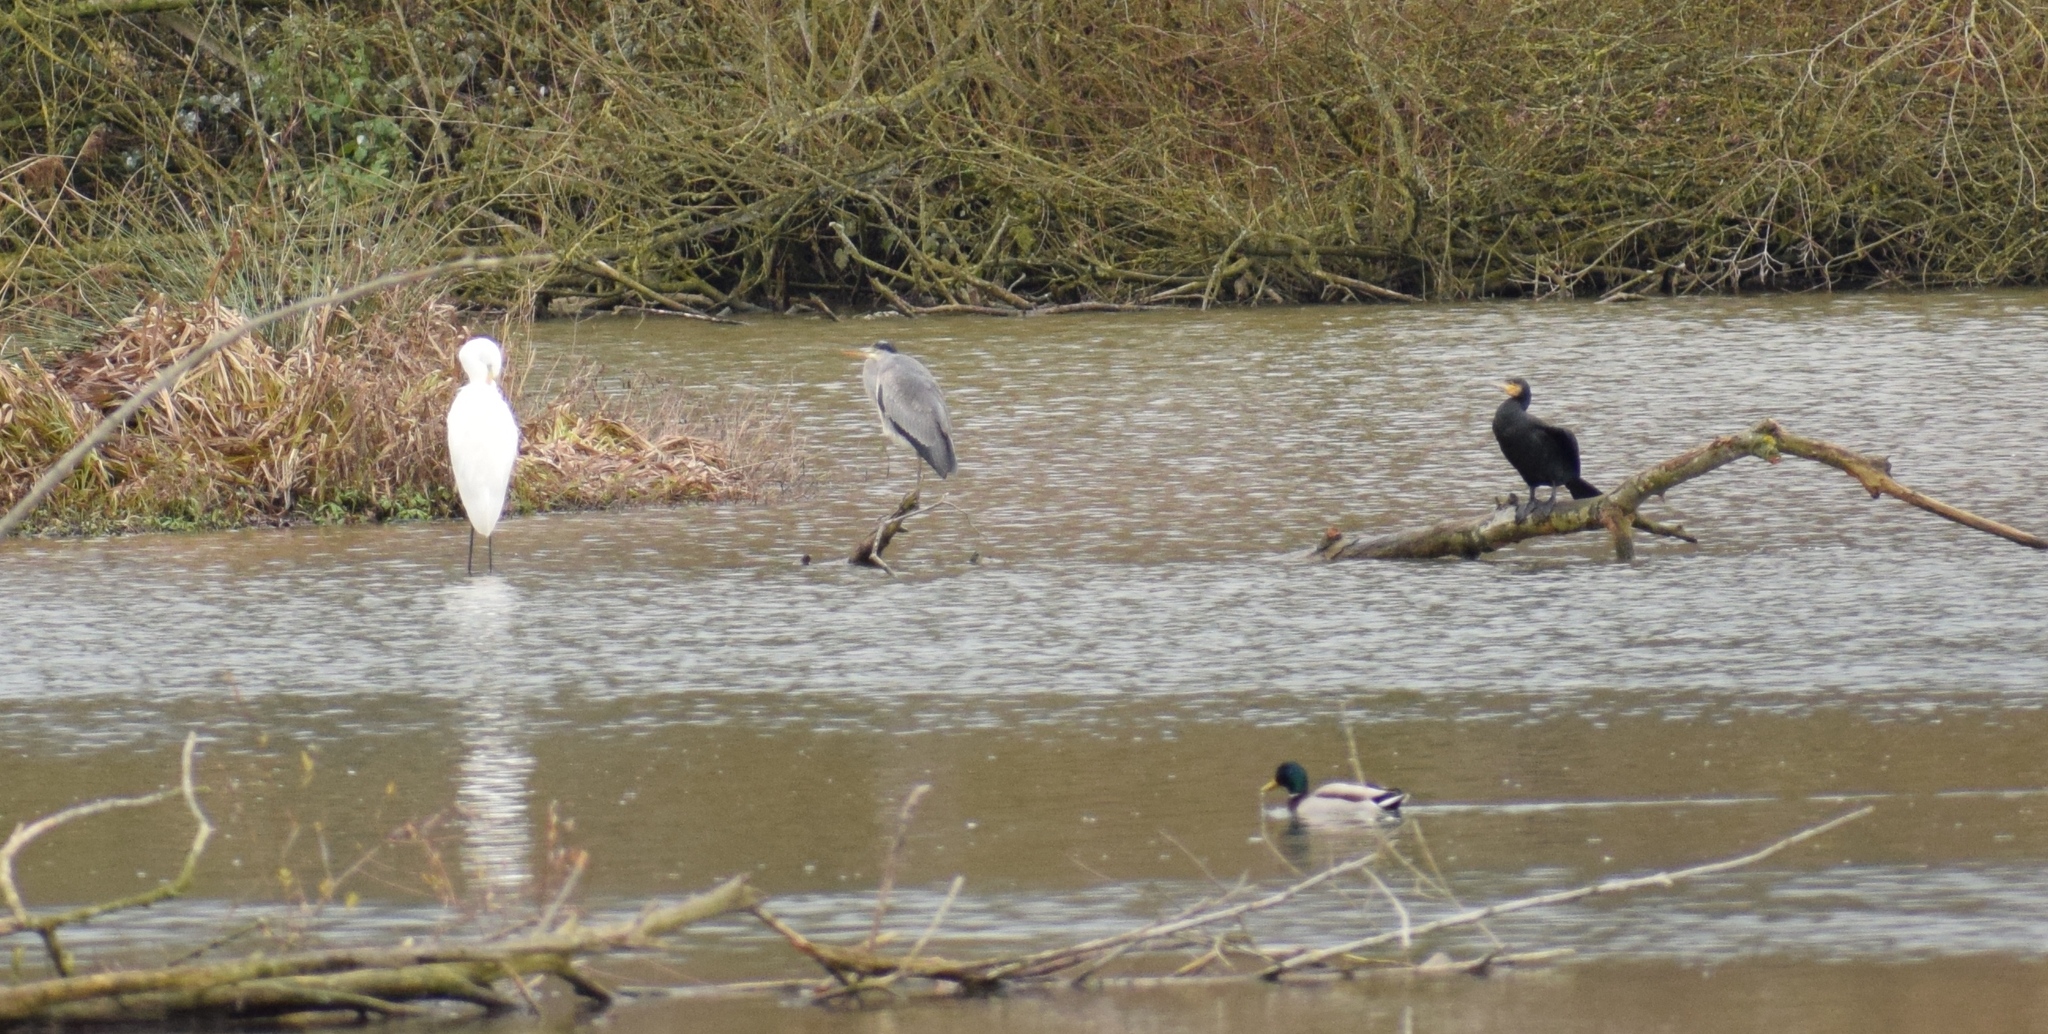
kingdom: Animalia
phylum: Chordata
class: Aves
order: Pelecaniformes
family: Ardeidae
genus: Ardea
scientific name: Ardea cinerea
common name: Grey heron
